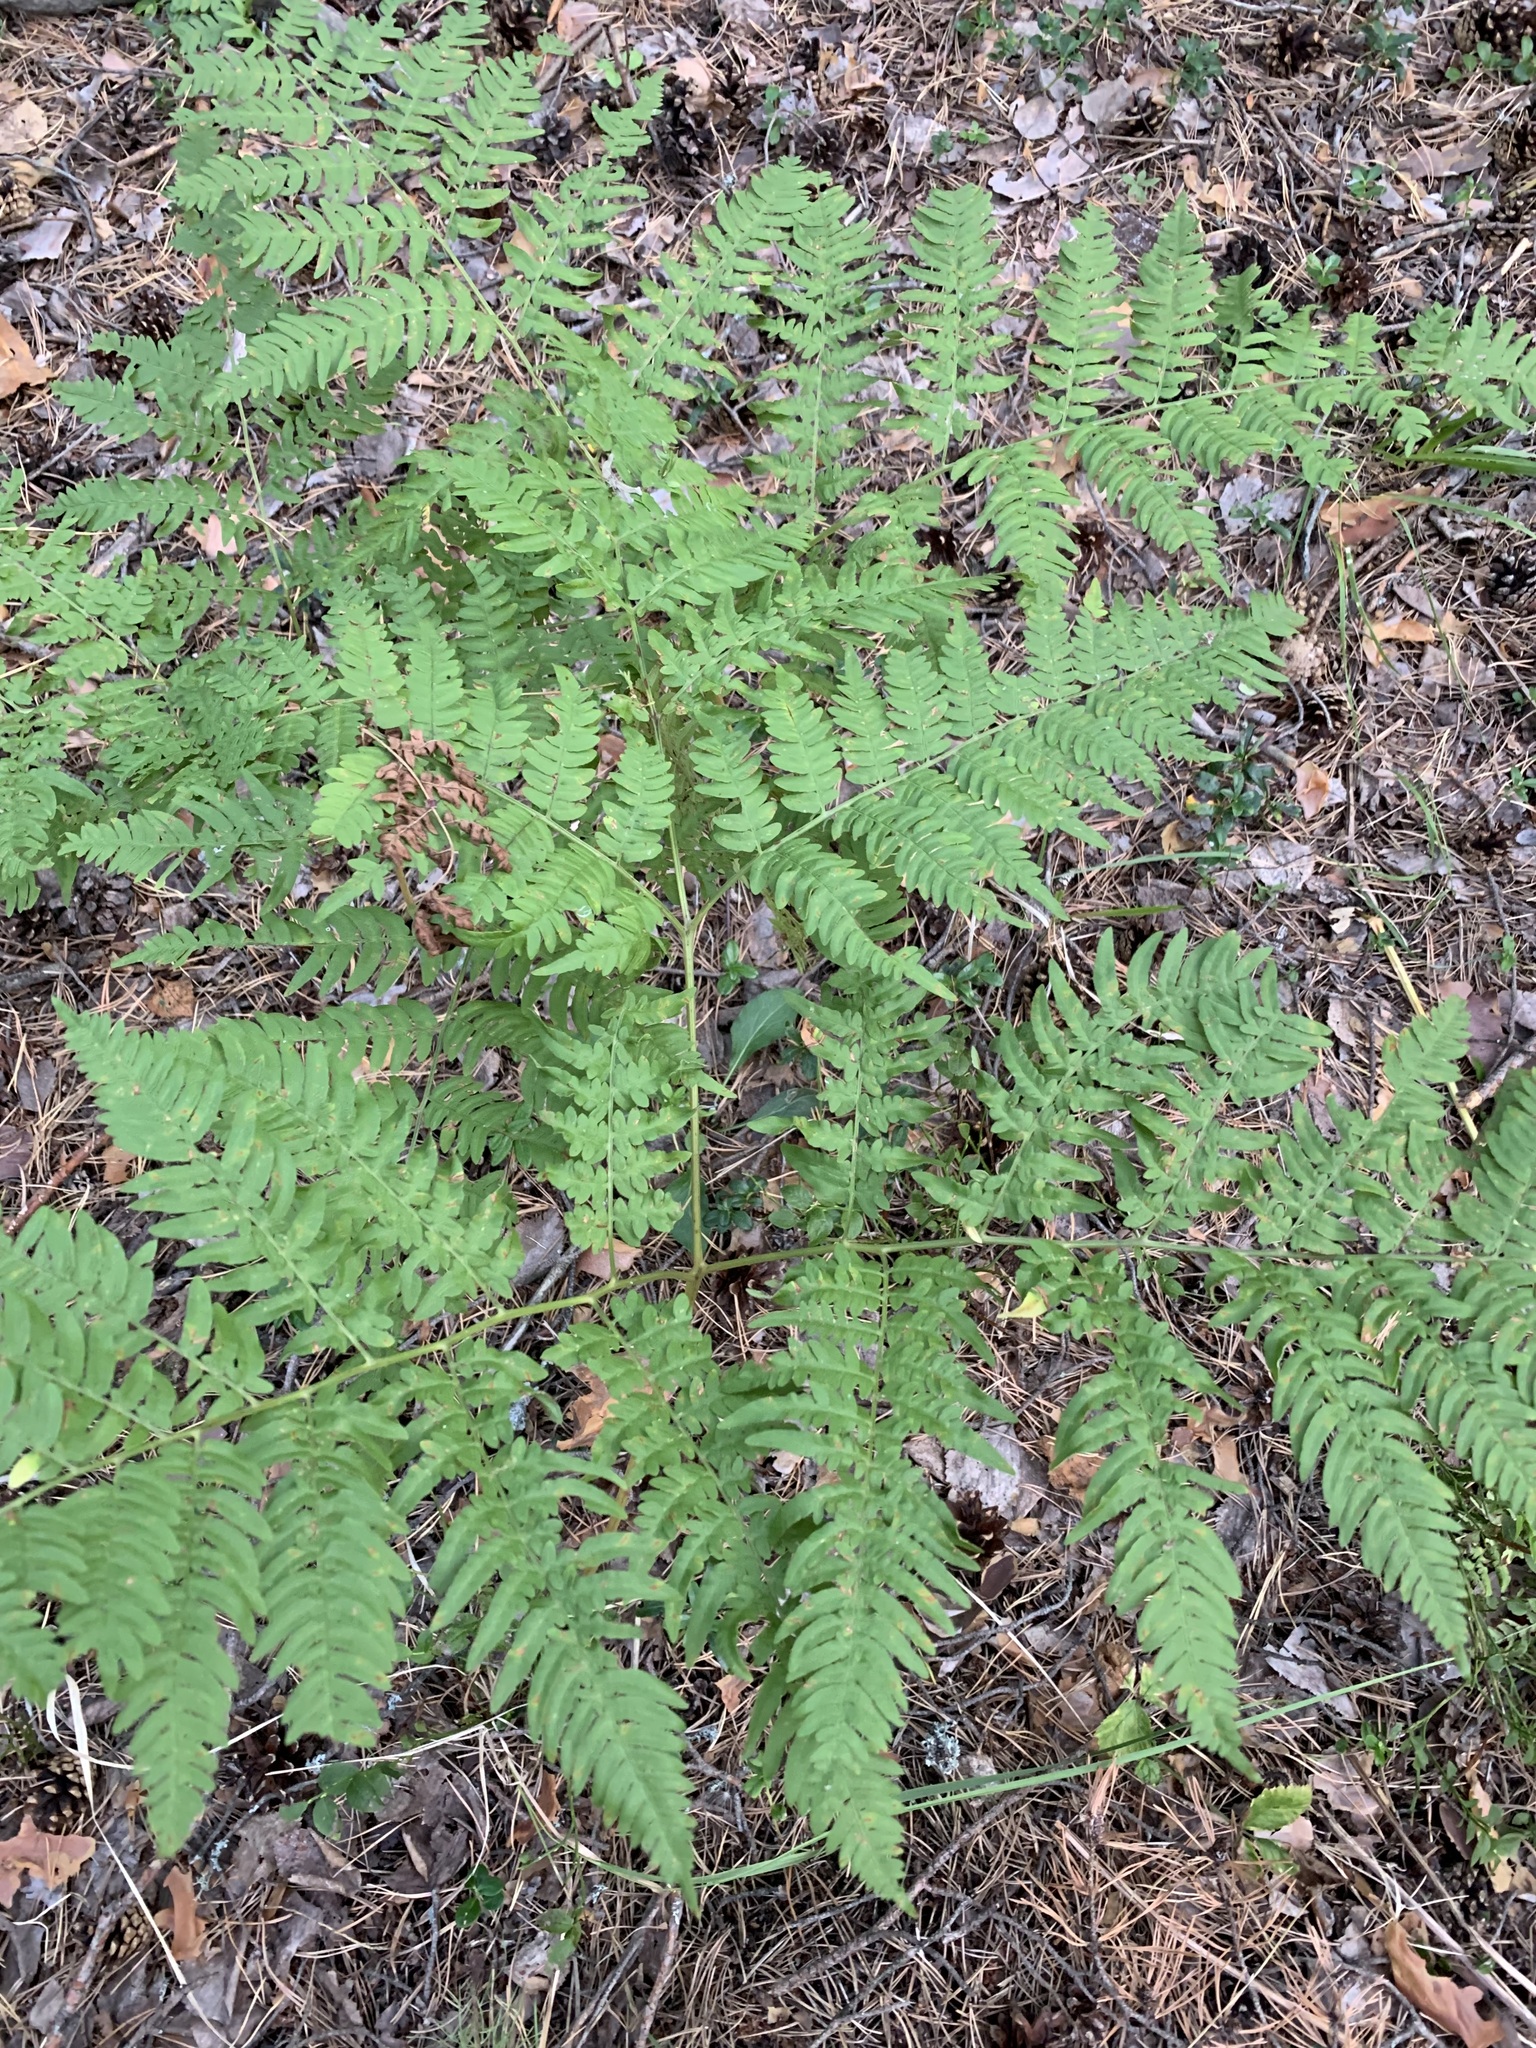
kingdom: Plantae
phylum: Tracheophyta
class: Polypodiopsida
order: Polypodiales
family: Dennstaedtiaceae
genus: Pteridium
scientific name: Pteridium aquilinum
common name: Bracken
